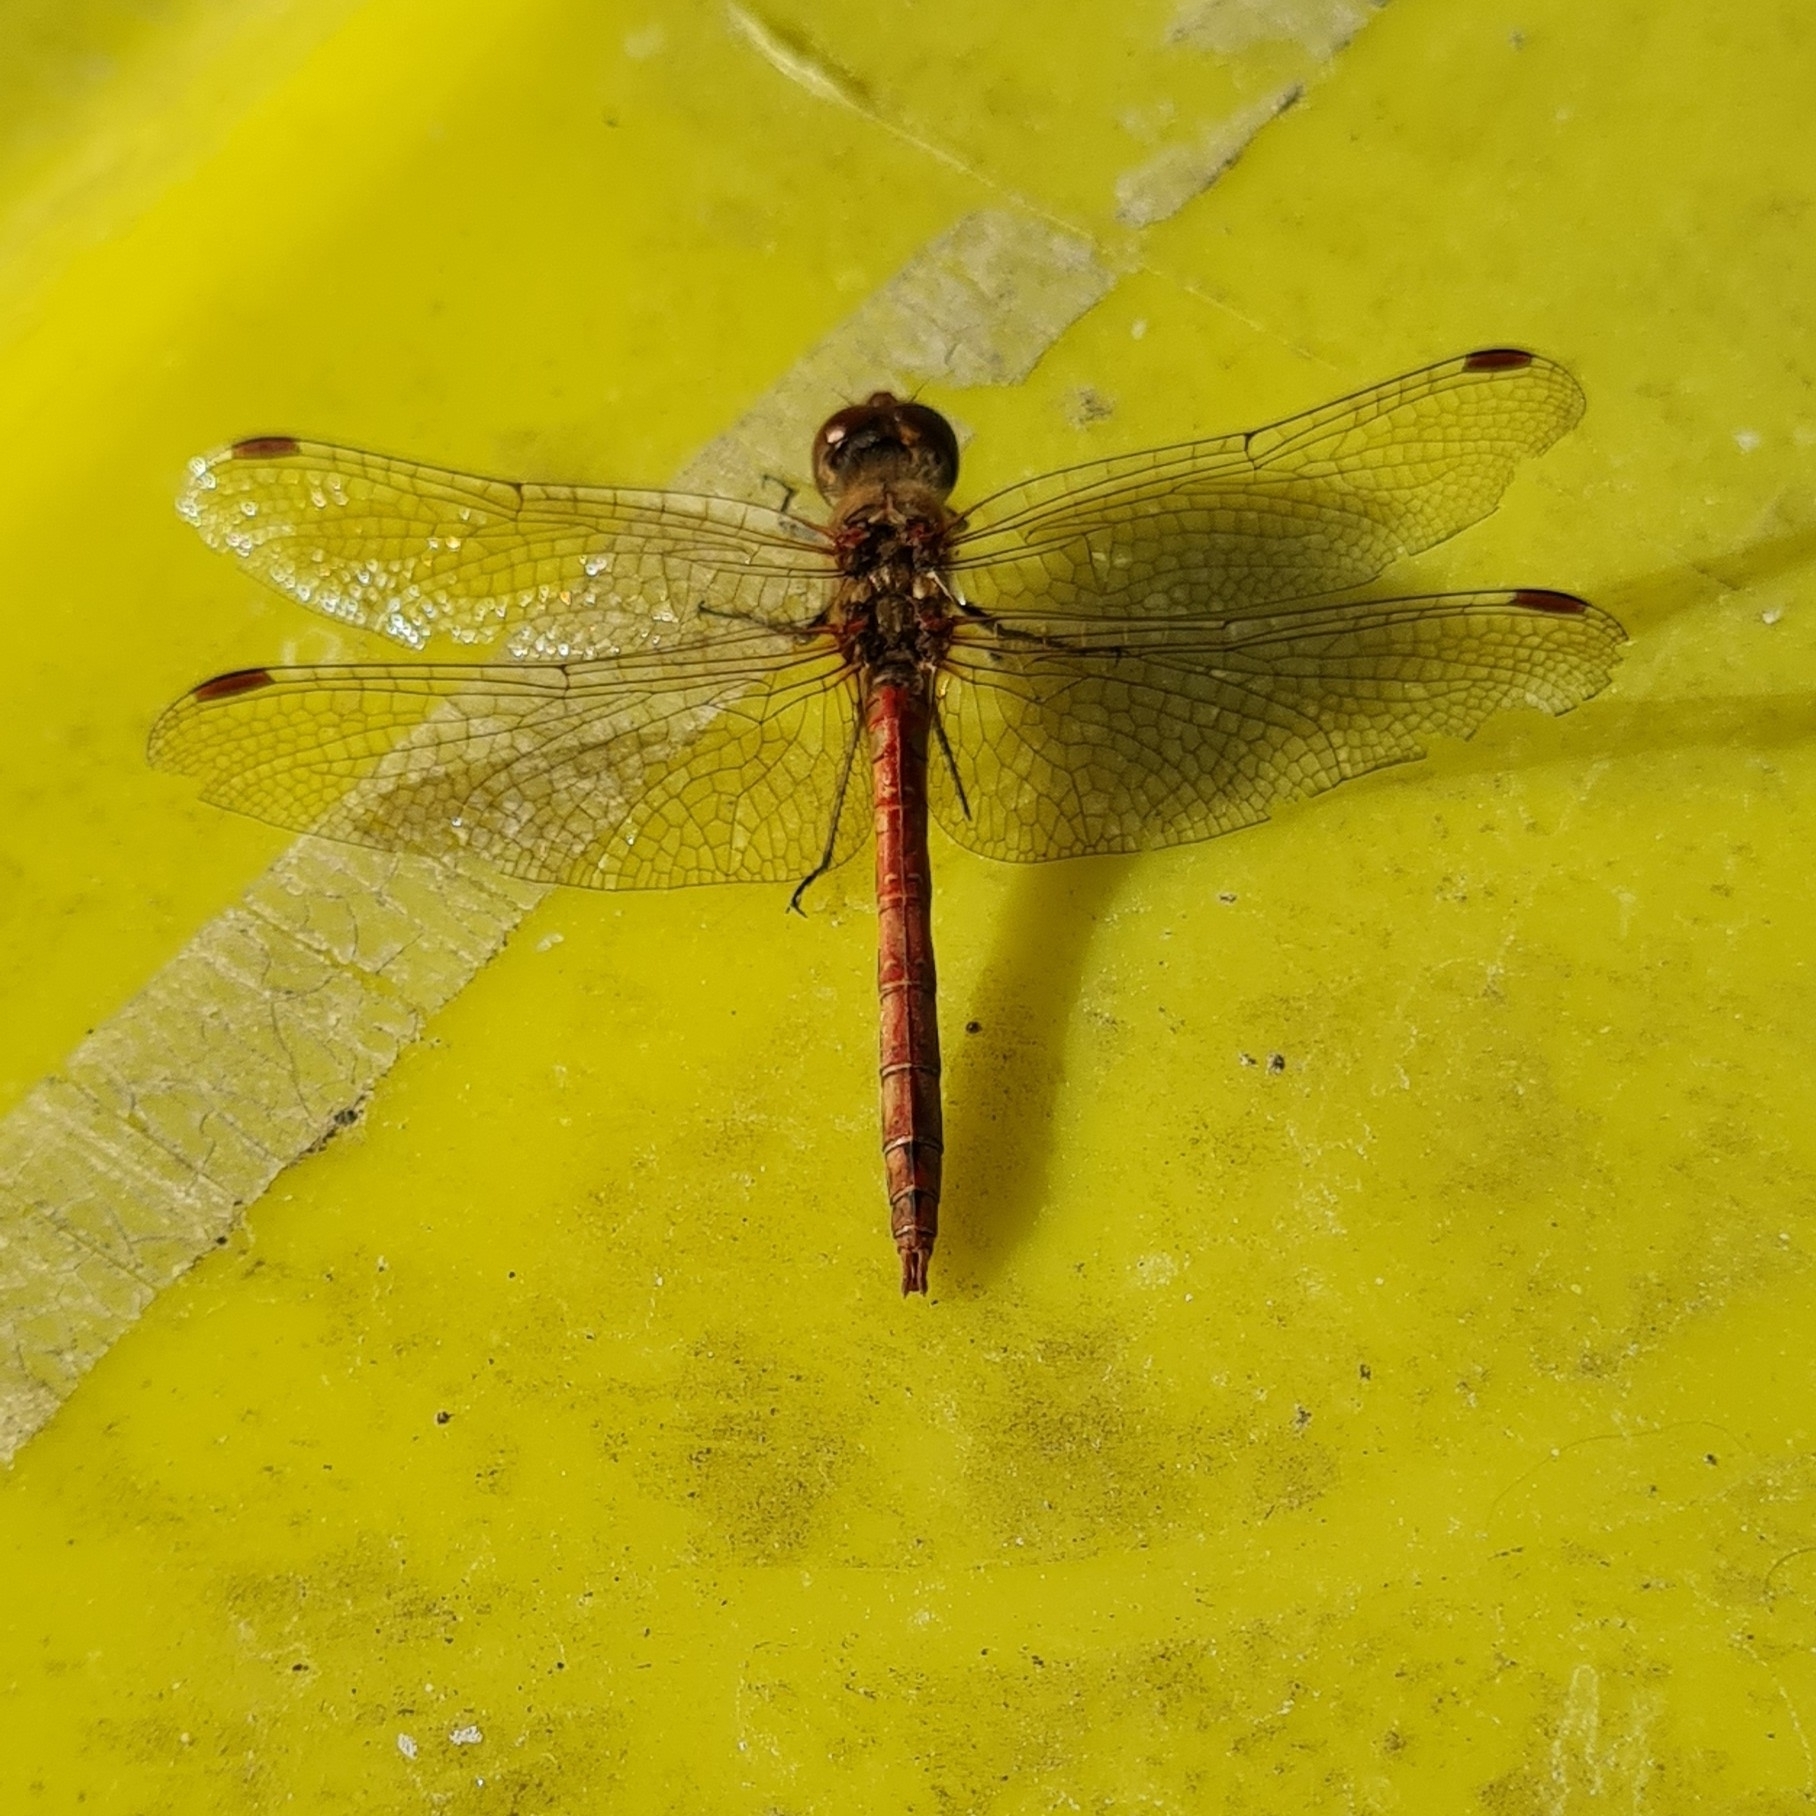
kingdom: Animalia
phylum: Arthropoda
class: Insecta
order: Odonata
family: Libellulidae
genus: Sympetrum
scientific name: Sympetrum striolatum
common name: Common darter
